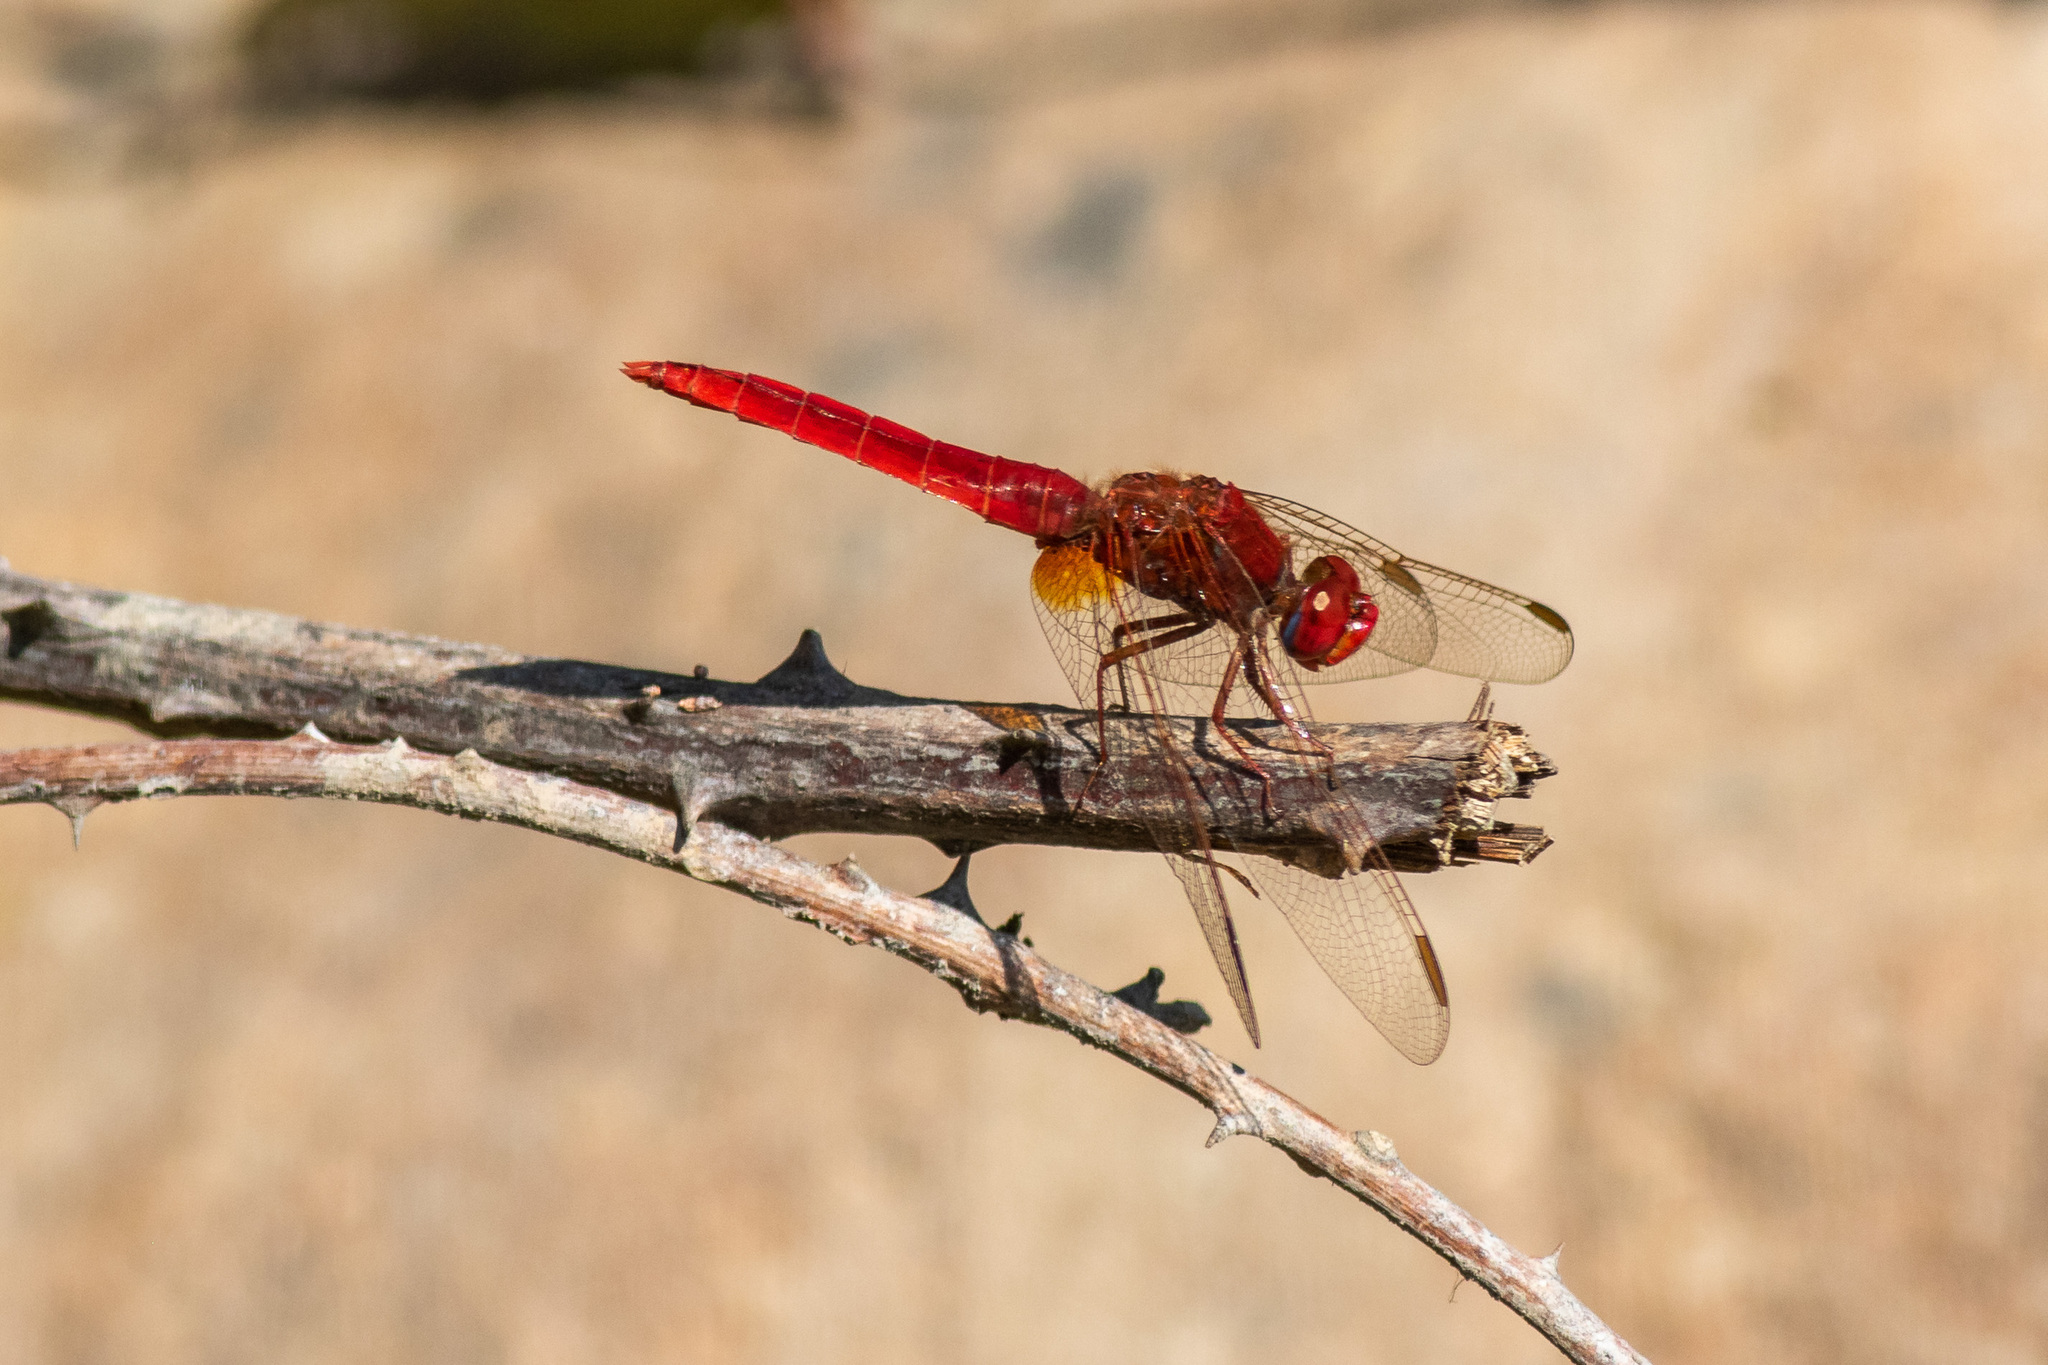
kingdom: Animalia
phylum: Arthropoda
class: Insecta
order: Odonata
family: Libellulidae
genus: Crocothemis
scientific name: Crocothemis erythraea
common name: Scarlet dragonfly
